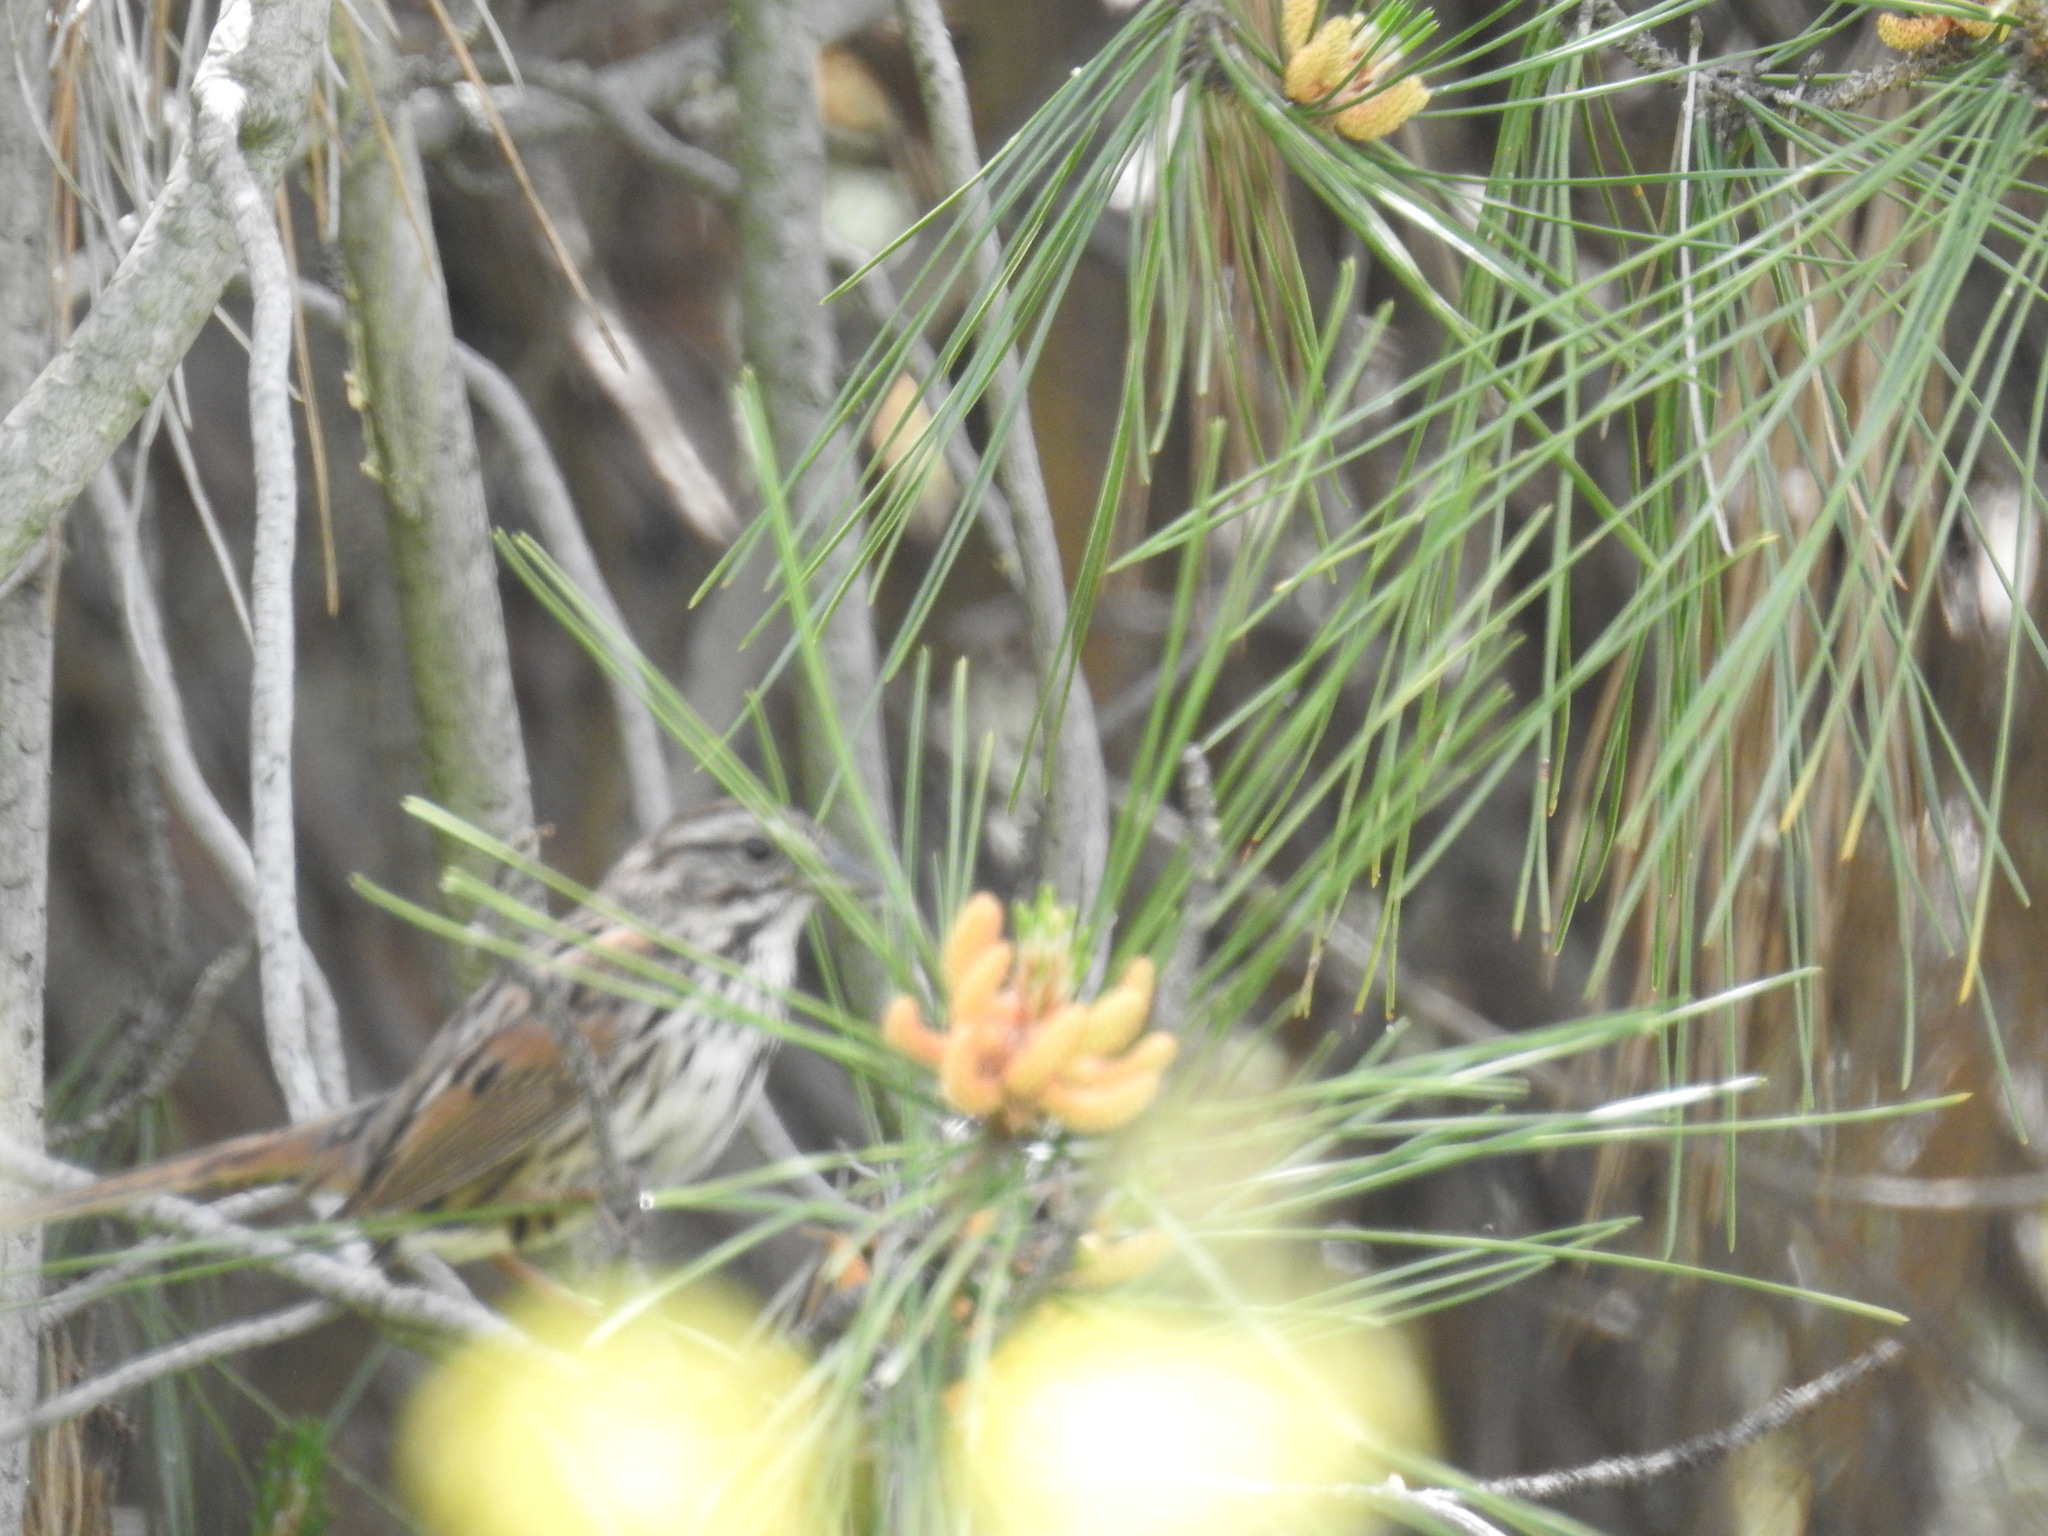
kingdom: Animalia
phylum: Chordata
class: Aves
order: Passeriformes
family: Passerellidae
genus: Melospiza
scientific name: Melospiza melodia
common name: Song sparrow
